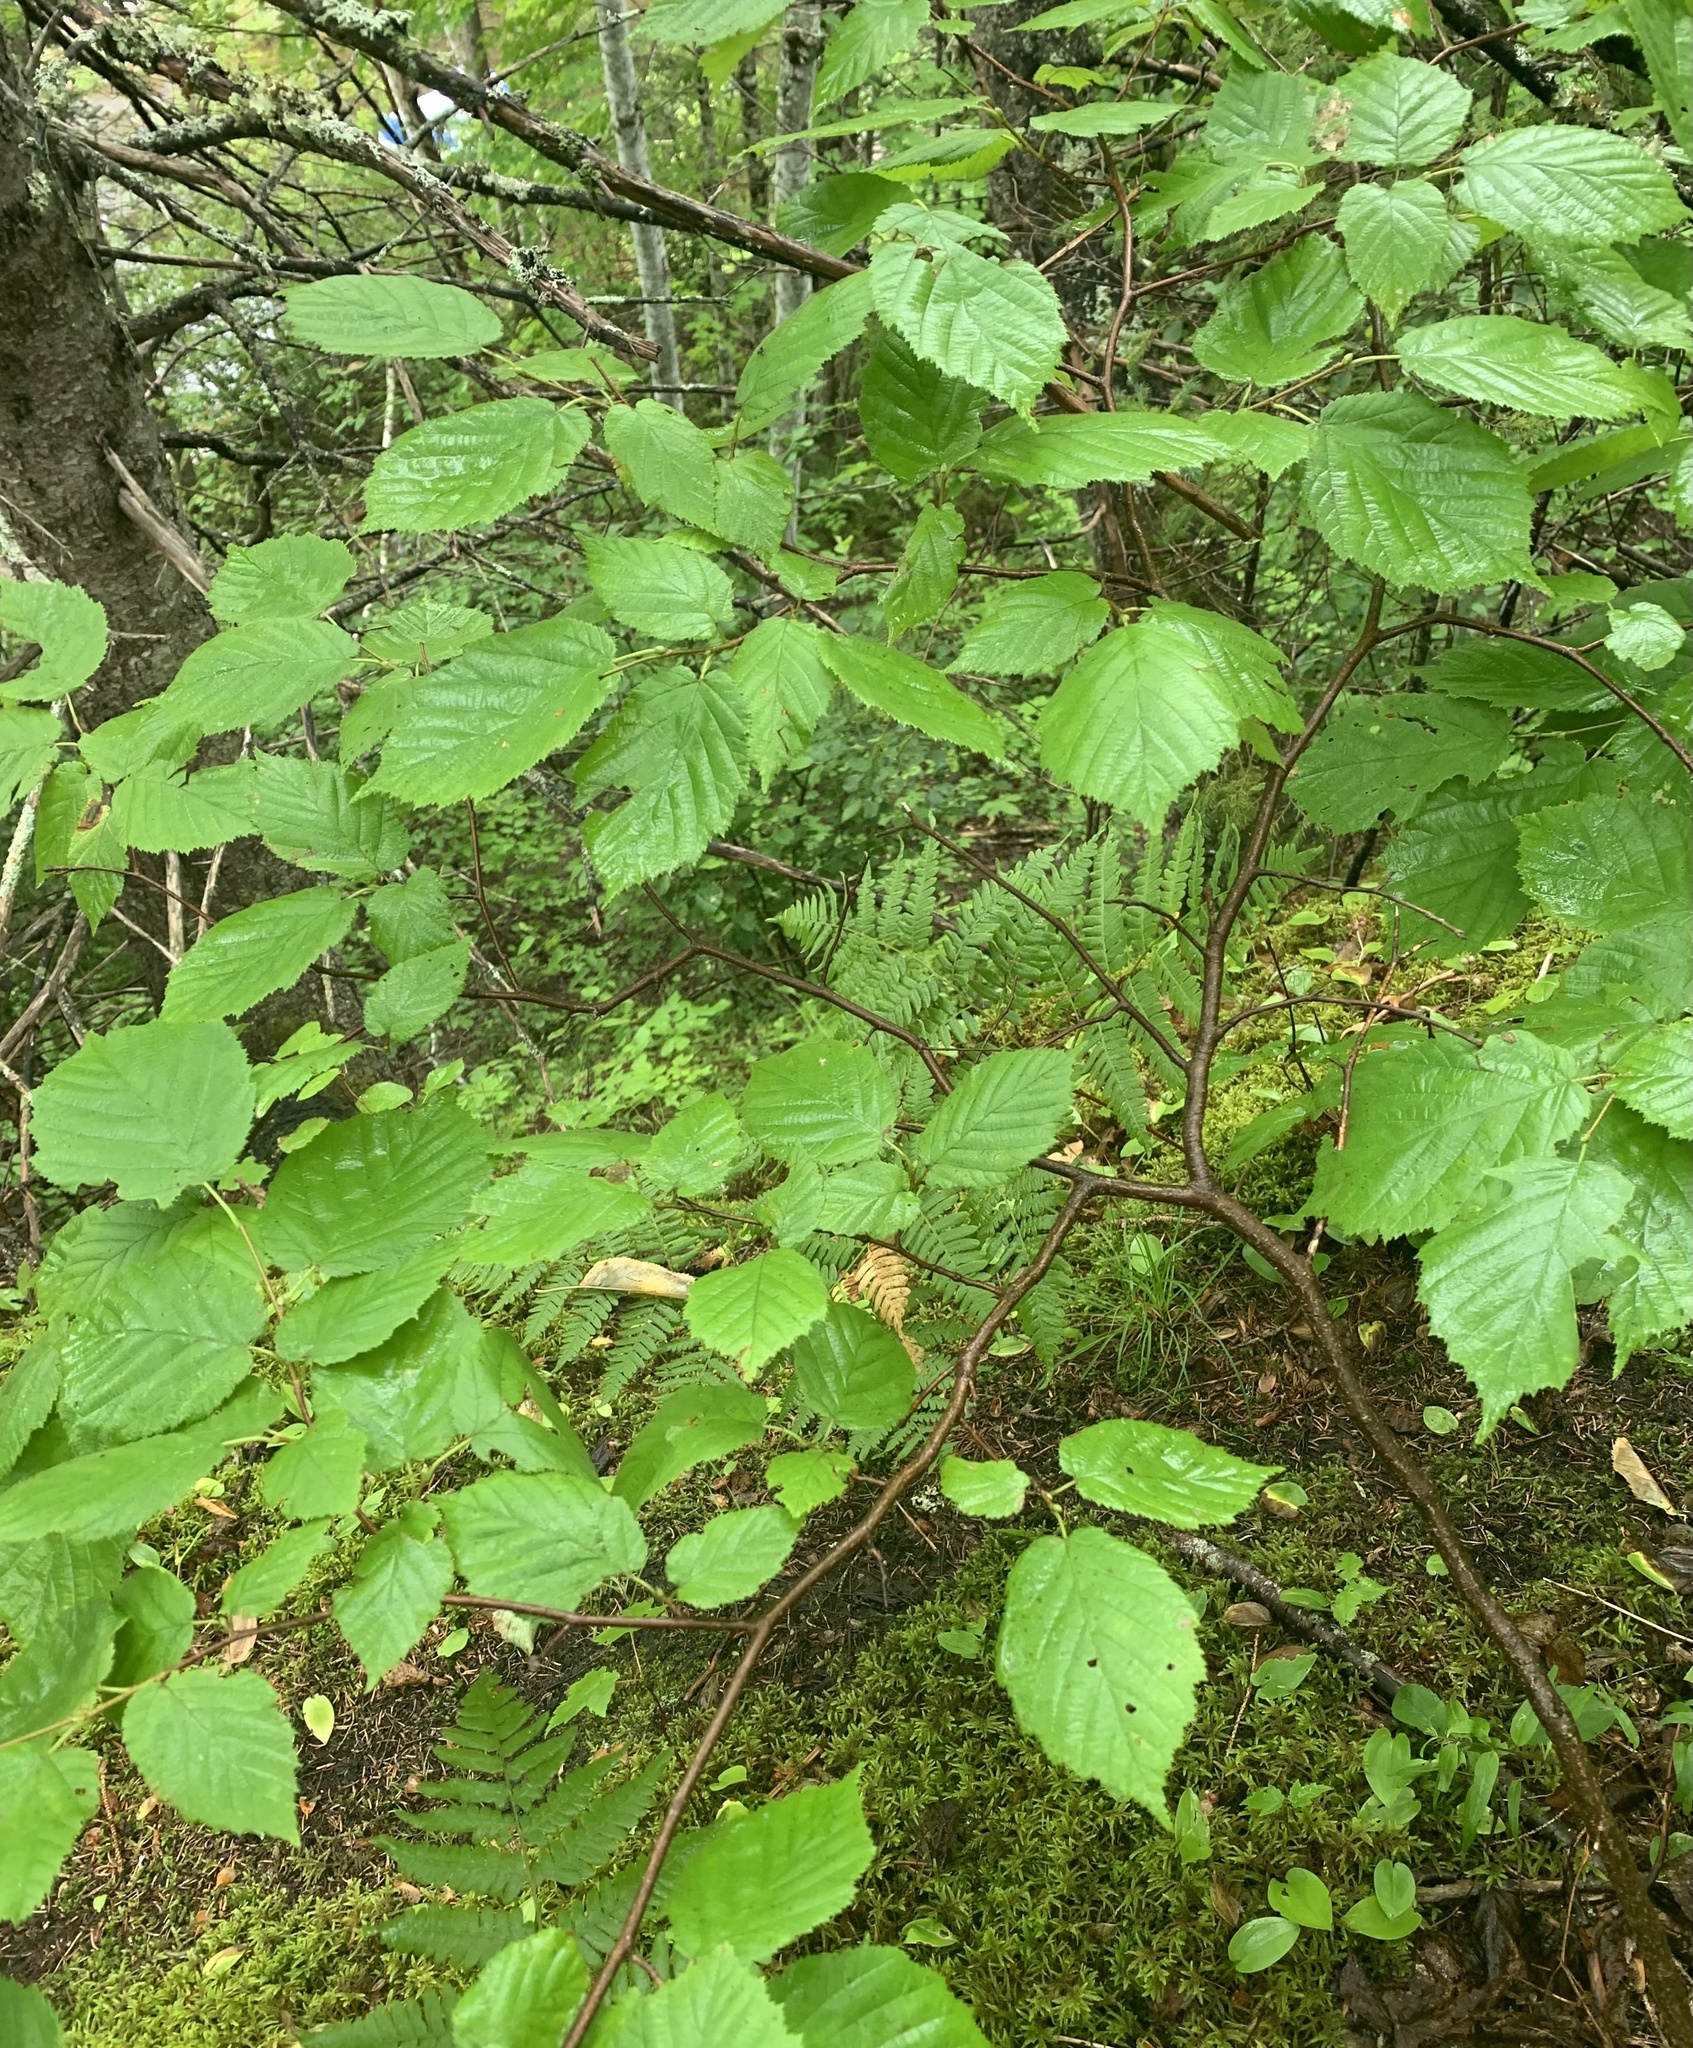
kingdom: Plantae
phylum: Tracheophyta
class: Magnoliopsida
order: Fagales
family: Betulaceae
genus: Corylus
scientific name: Corylus cornuta
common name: Beaked hazel
